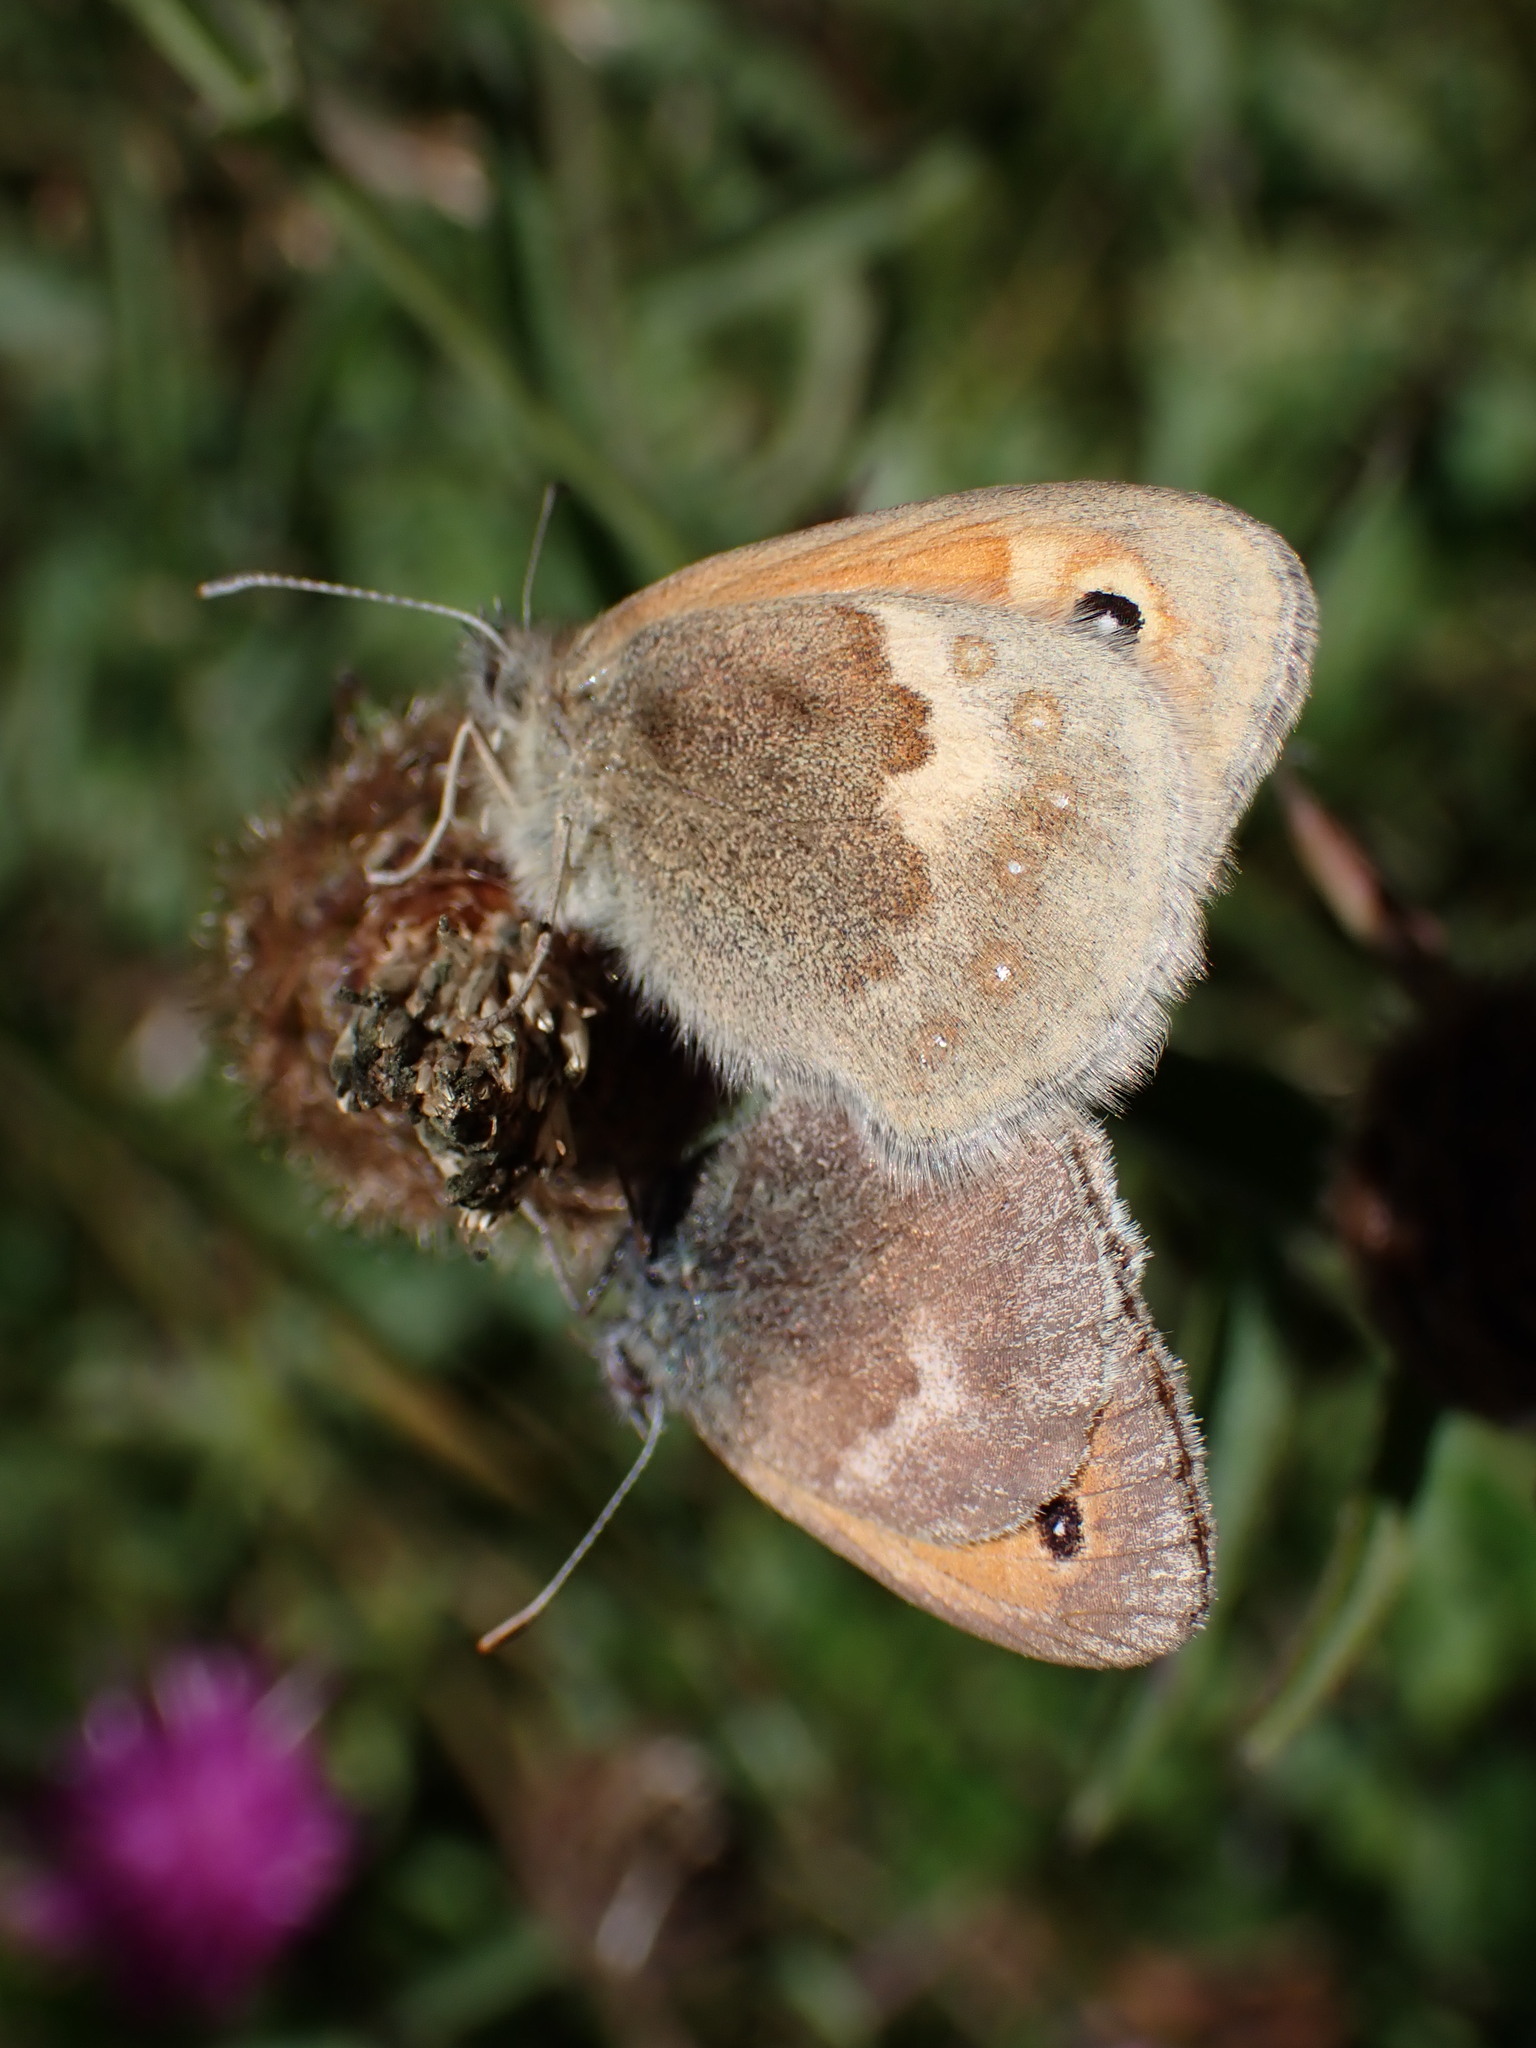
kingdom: Animalia
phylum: Arthropoda
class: Insecta
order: Lepidoptera
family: Nymphalidae
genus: Coenonympha
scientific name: Coenonympha pamphilus
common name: Small heath
